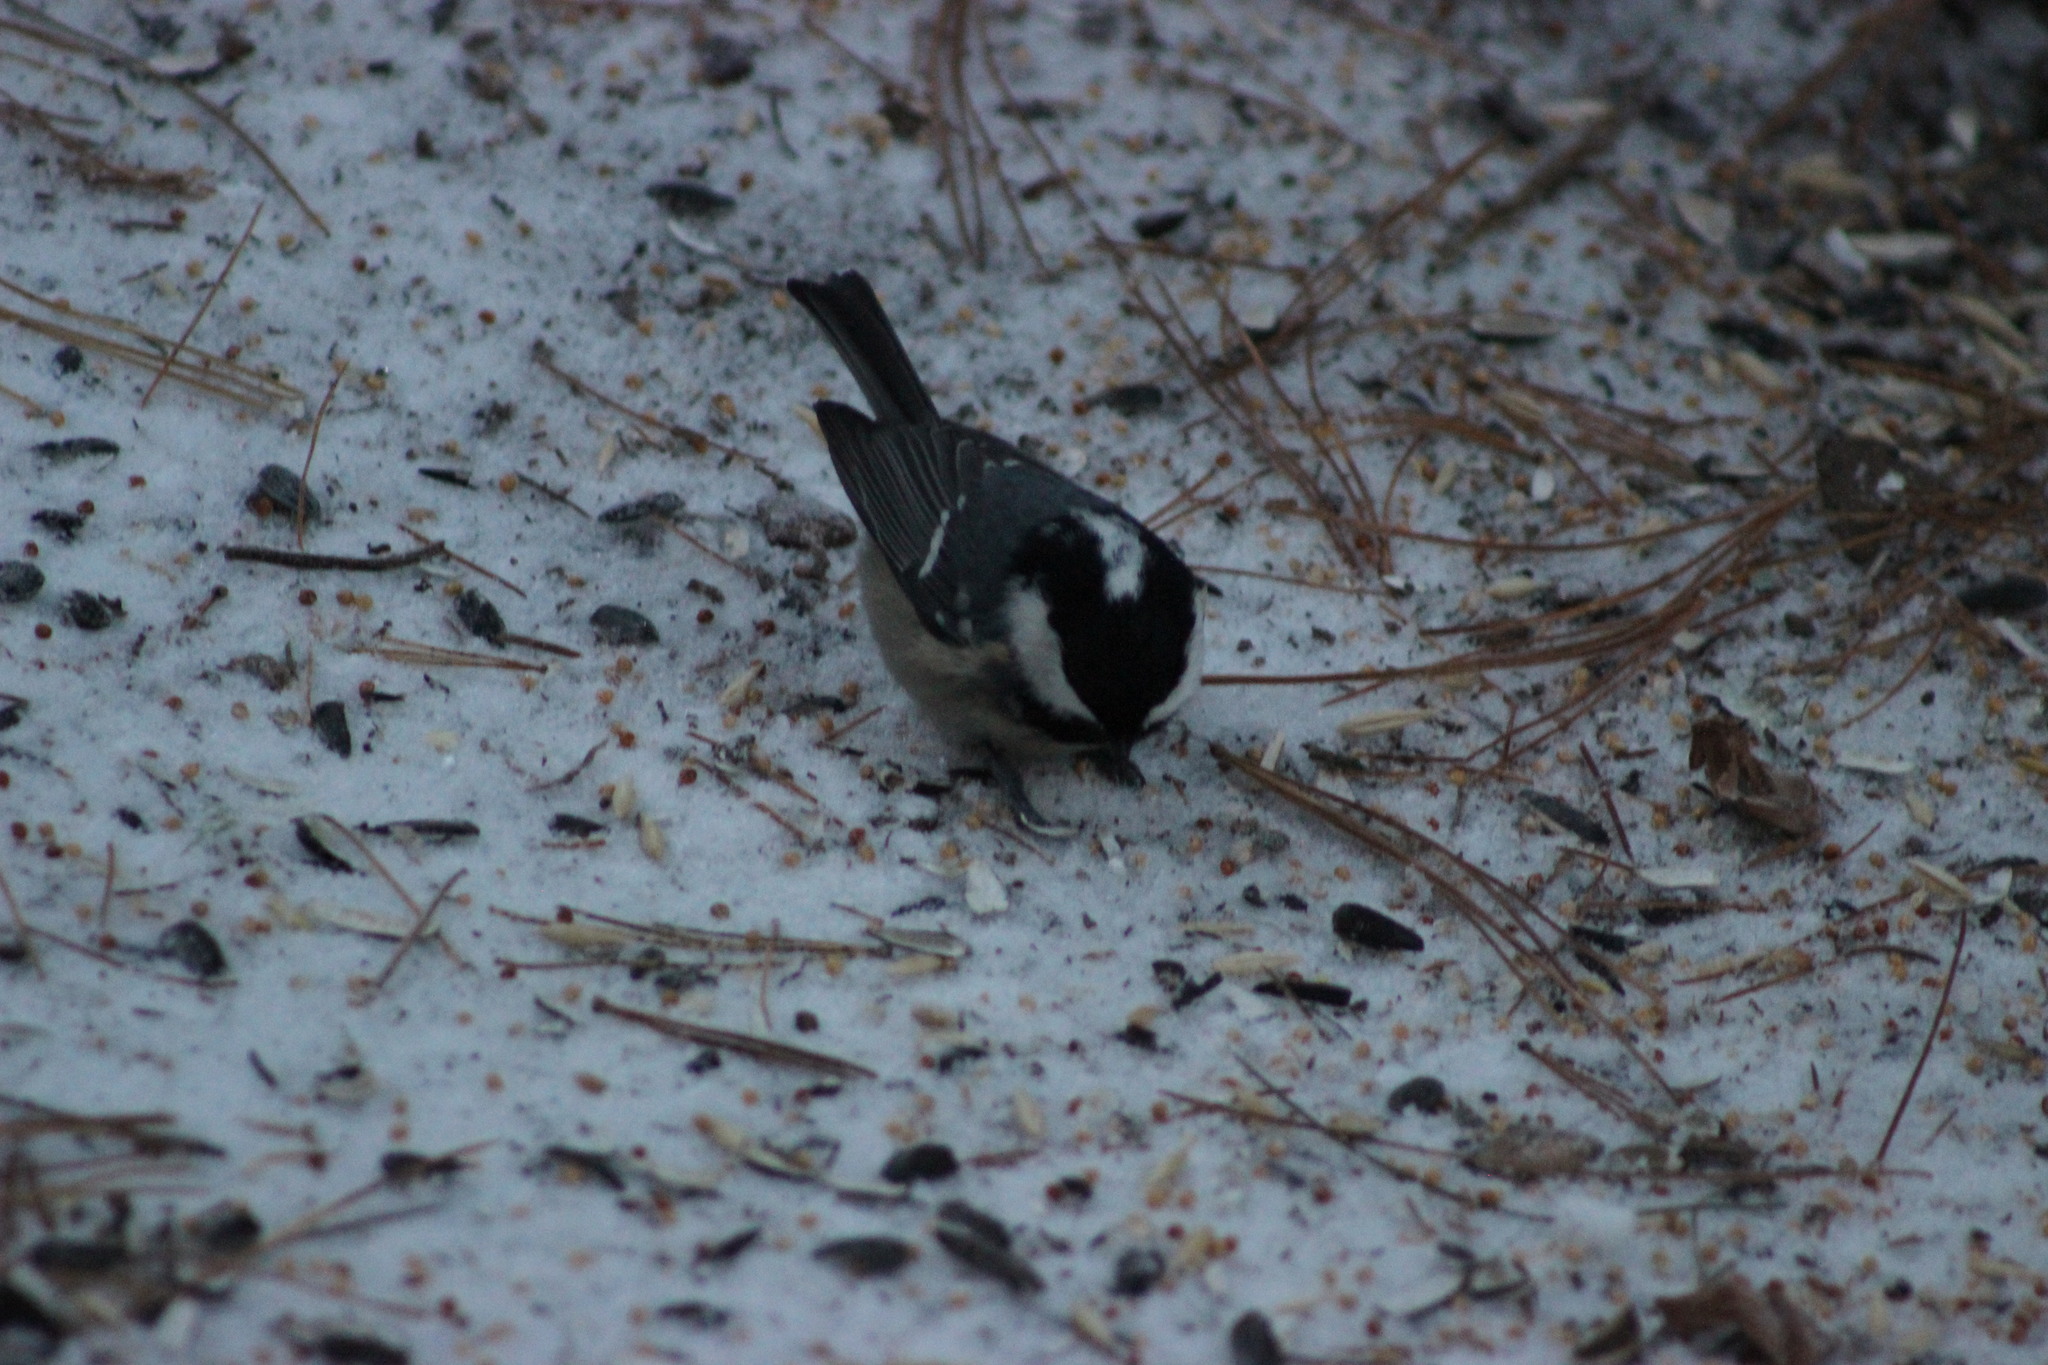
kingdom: Animalia
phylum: Chordata
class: Aves
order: Passeriformes
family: Paridae
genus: Periparus
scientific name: Periparus ater
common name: Coal tit
